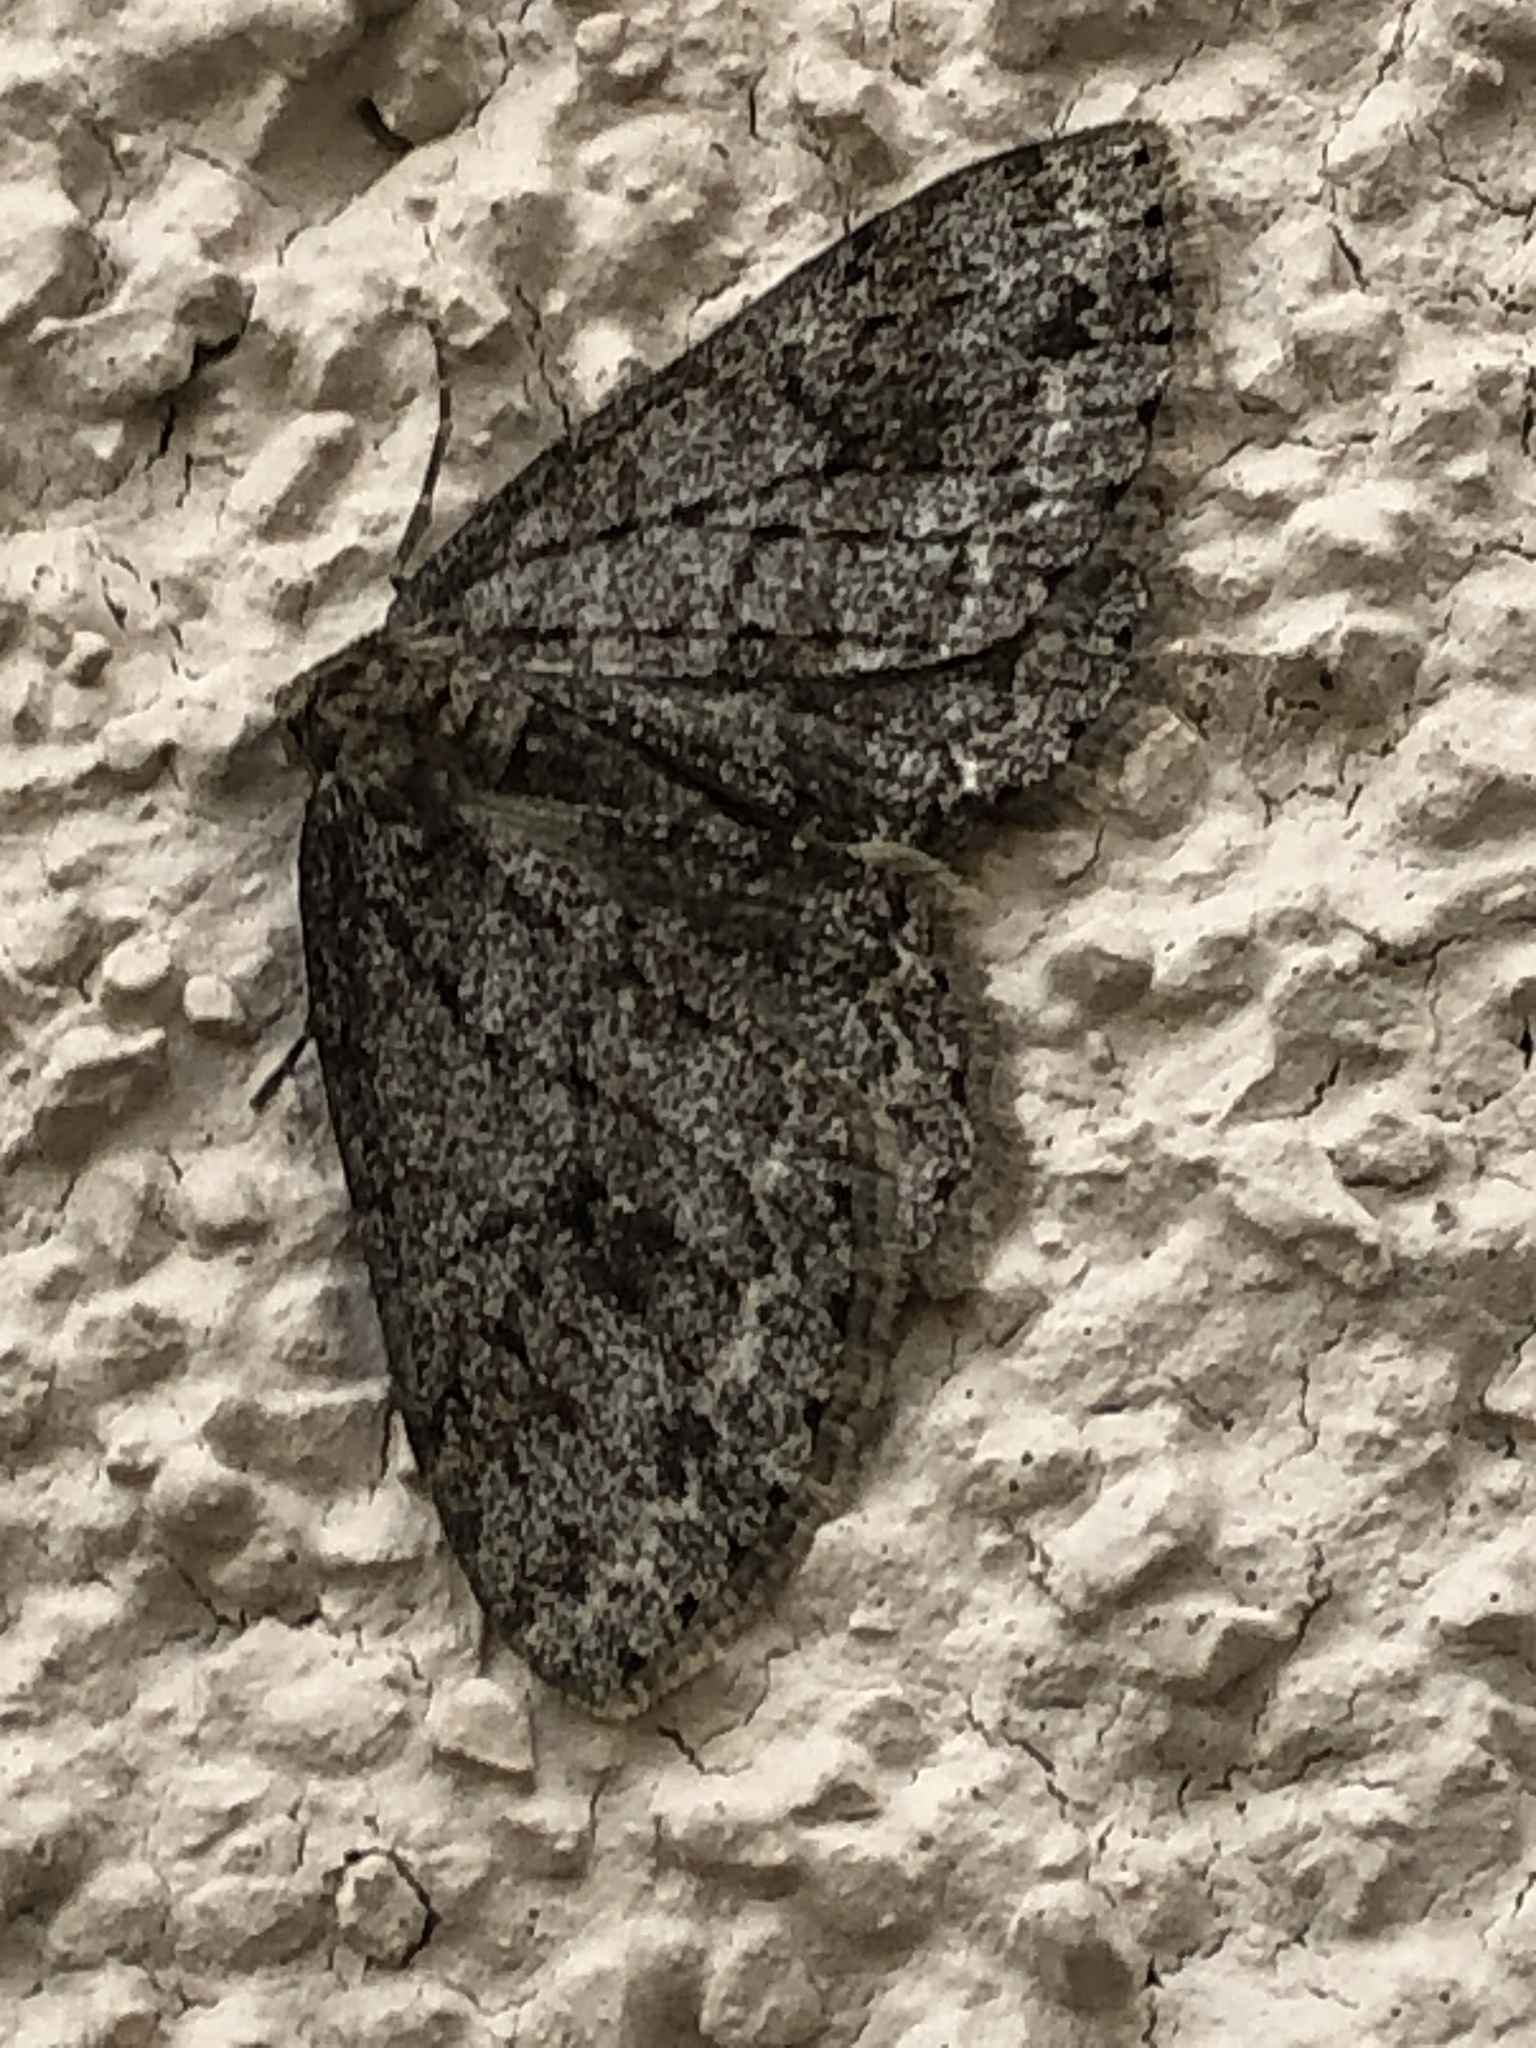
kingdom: Animalia
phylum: Arthropoda
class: Insecta
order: Lepidoptera
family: Geometridae
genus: Ectropis
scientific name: Ectropis crepuscularia
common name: Engrailed
